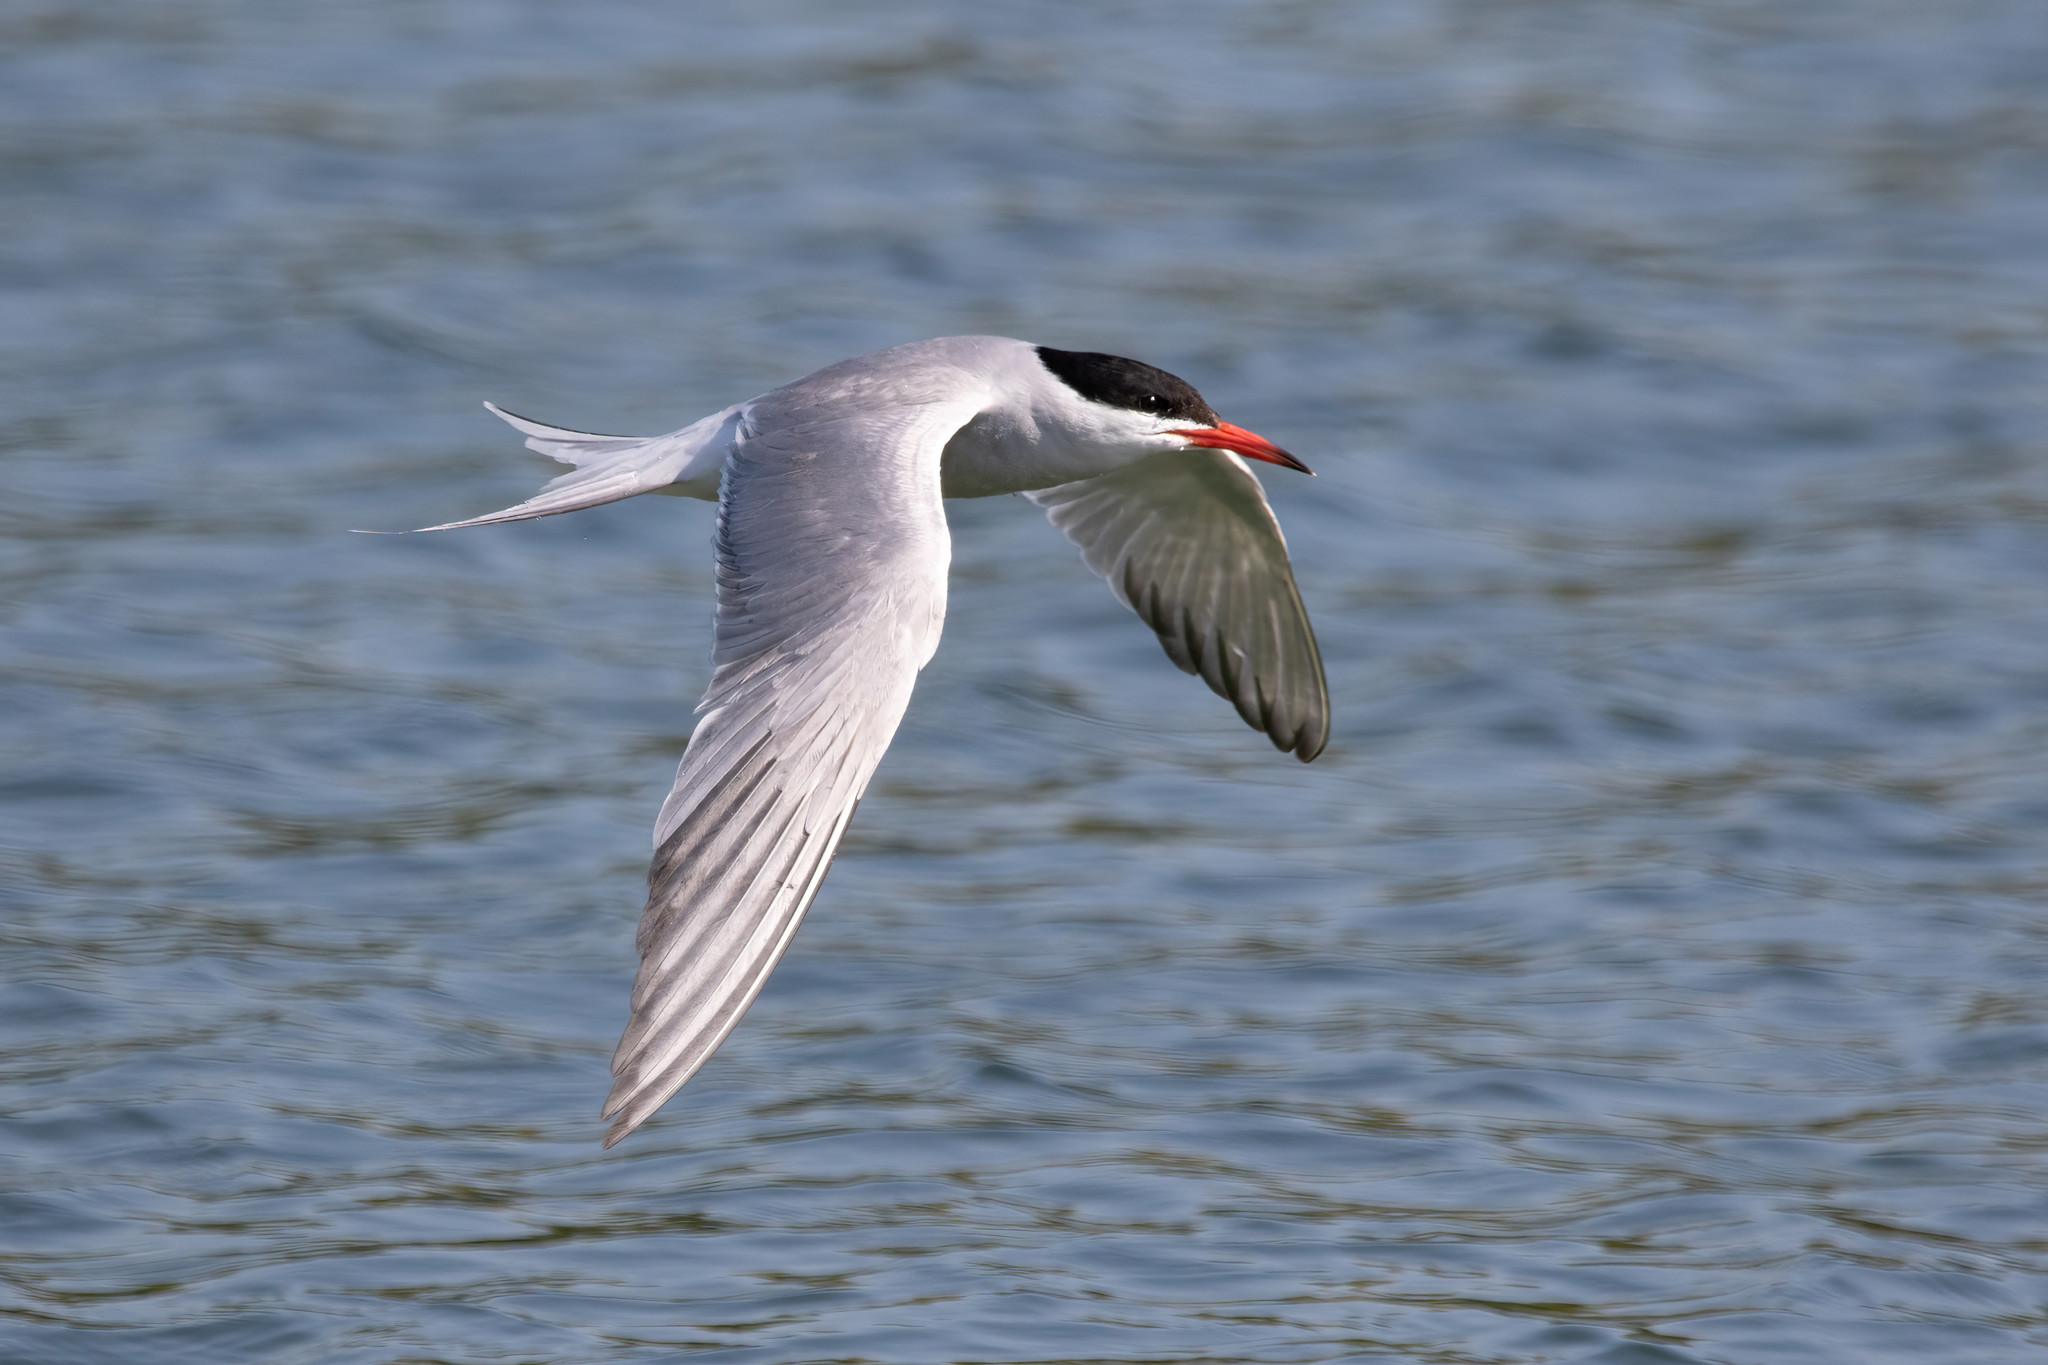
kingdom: Animalia
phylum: Chordata
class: Aves
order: Charadriiformes
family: Laridae
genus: Sterna
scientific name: Sterna hirundo
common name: Common tern
